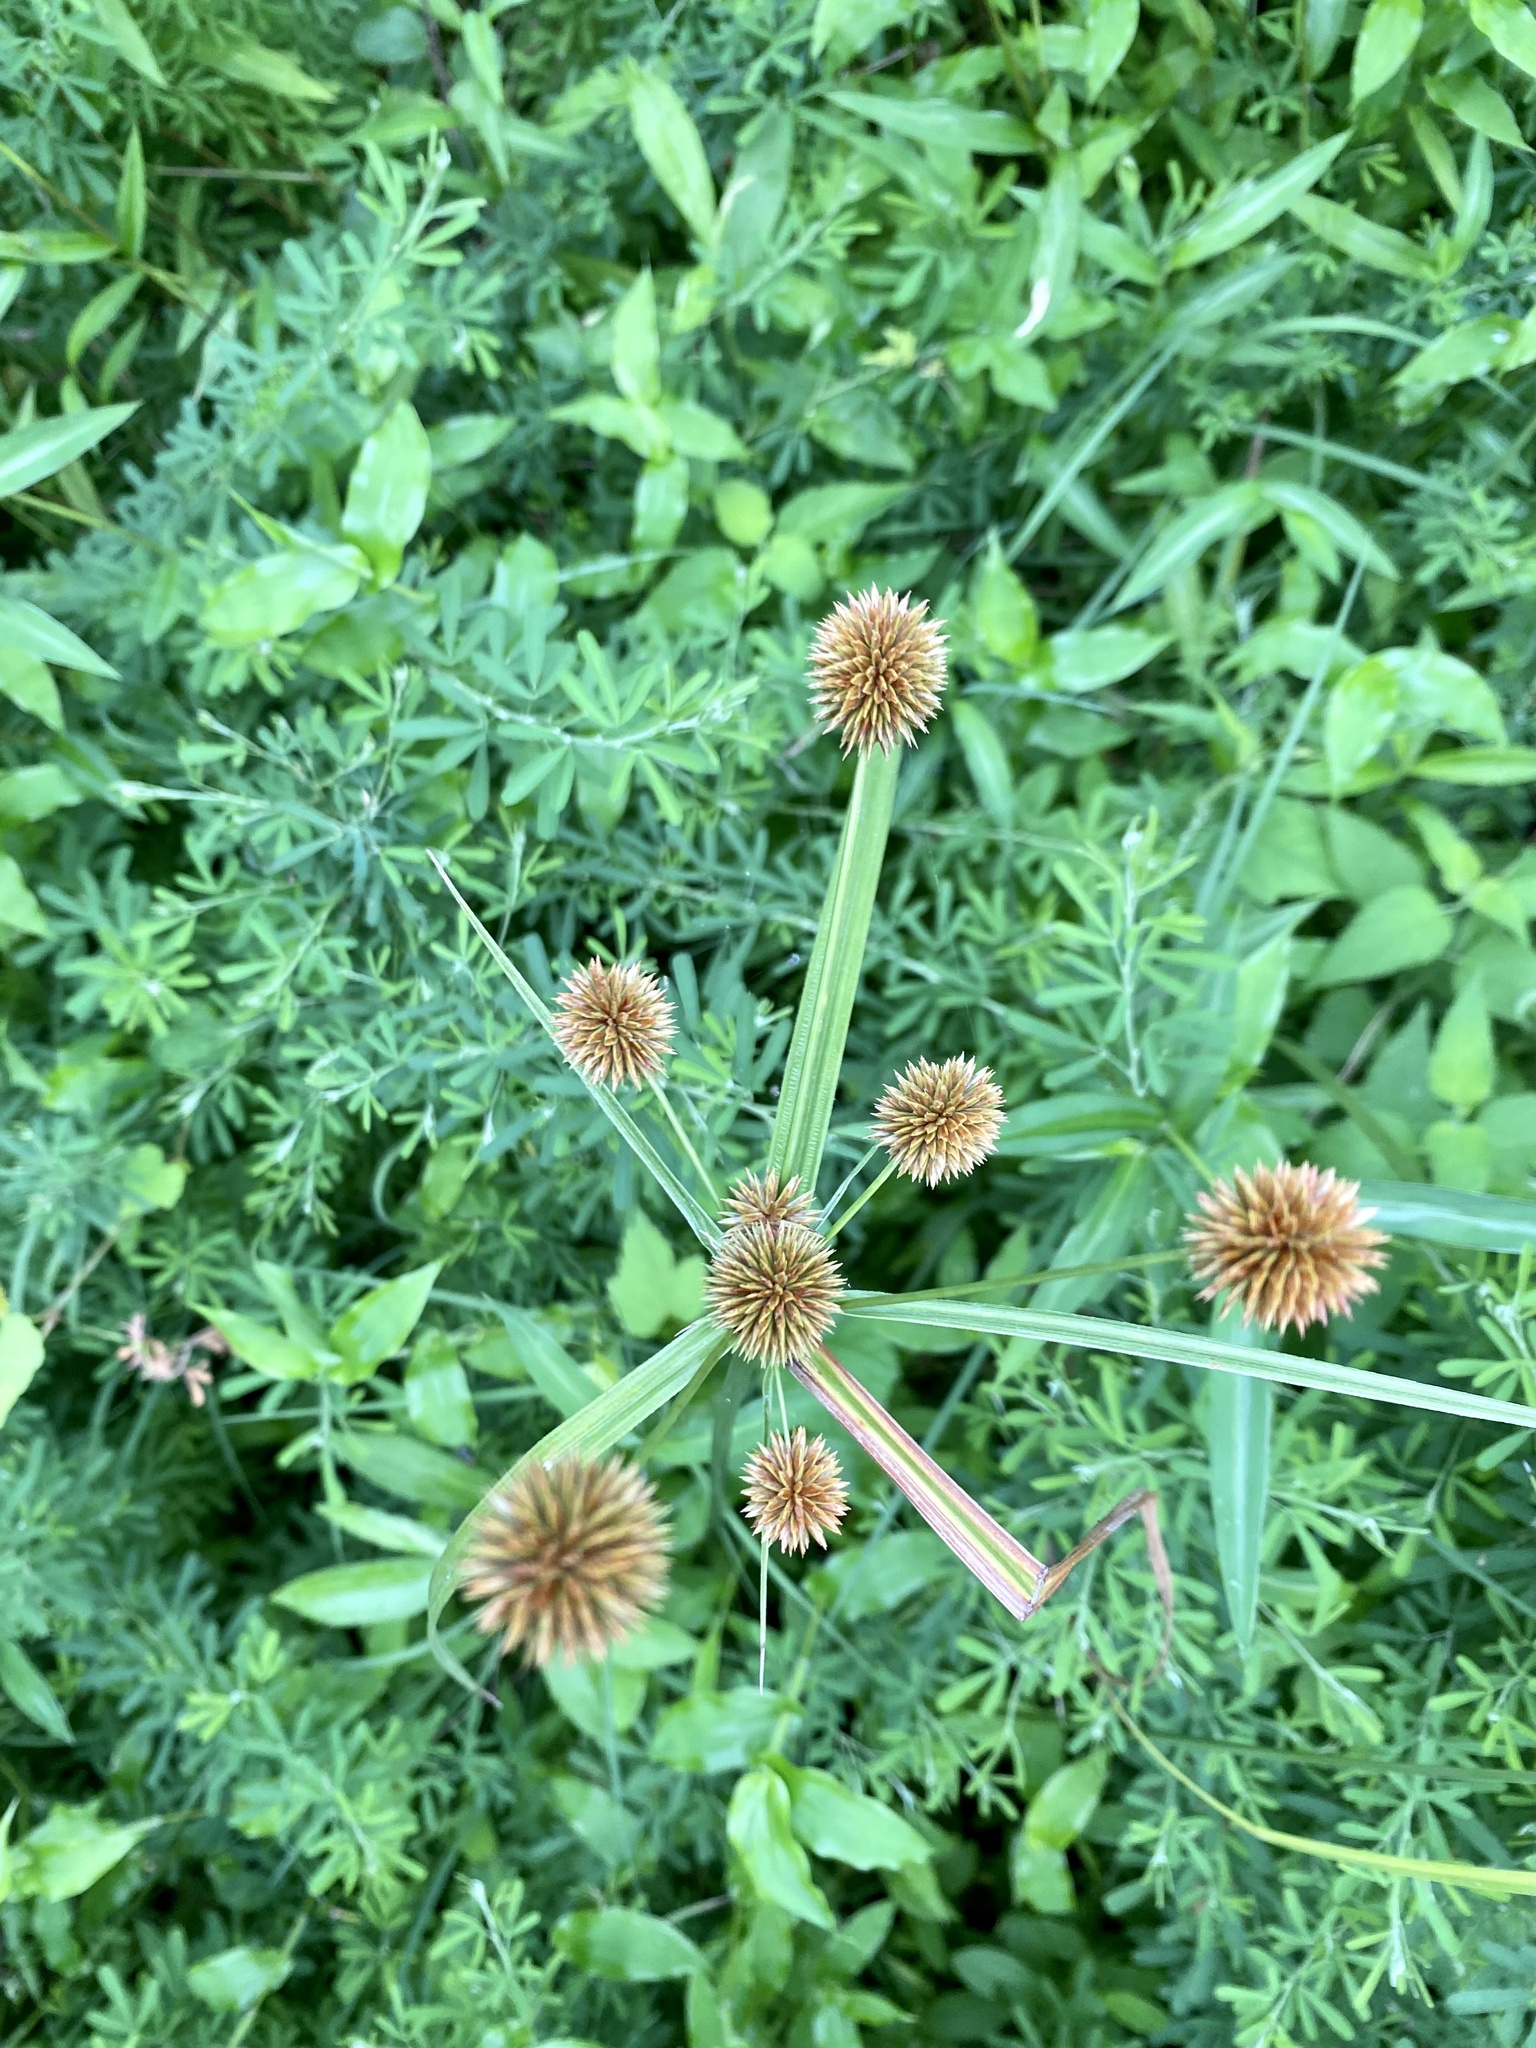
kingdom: Plantae
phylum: Tracheophyta
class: Liliopsida
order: Poales
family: Cyperaceae
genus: Cyperus
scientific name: Cyperus echinatus
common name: Teasel sedge
